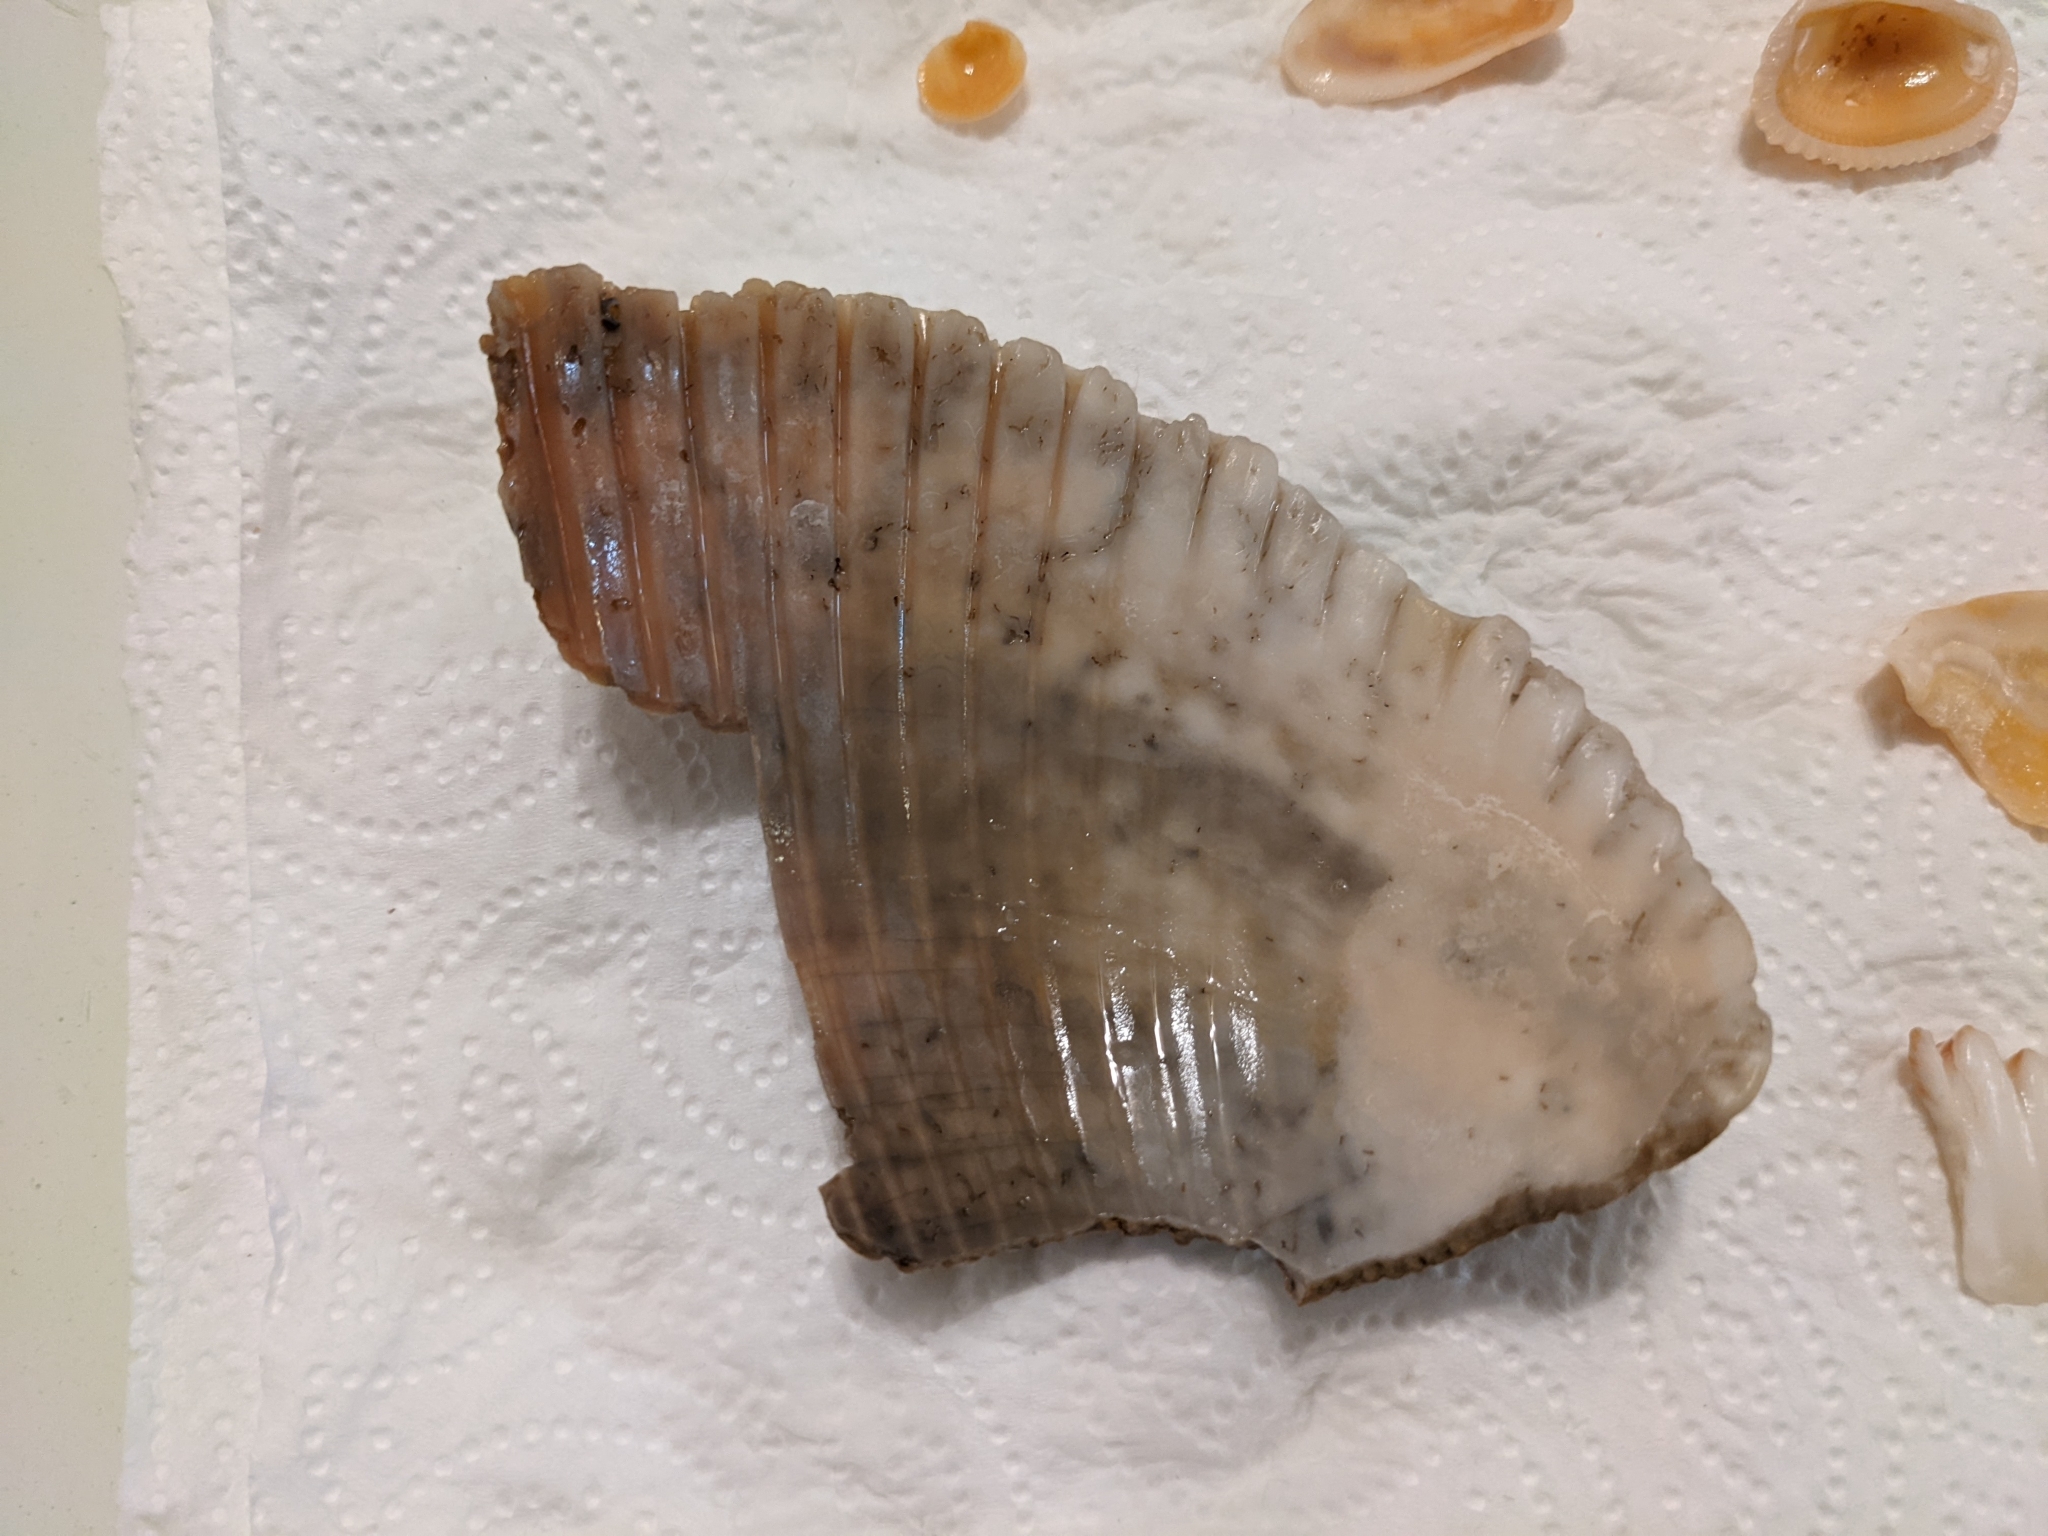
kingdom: Animalia
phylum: Mollusca
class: Bivalvia
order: Cardiida
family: Cardiidae
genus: Dinocardium
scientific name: Dinocardium robustum
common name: Atlantic giant cockle
